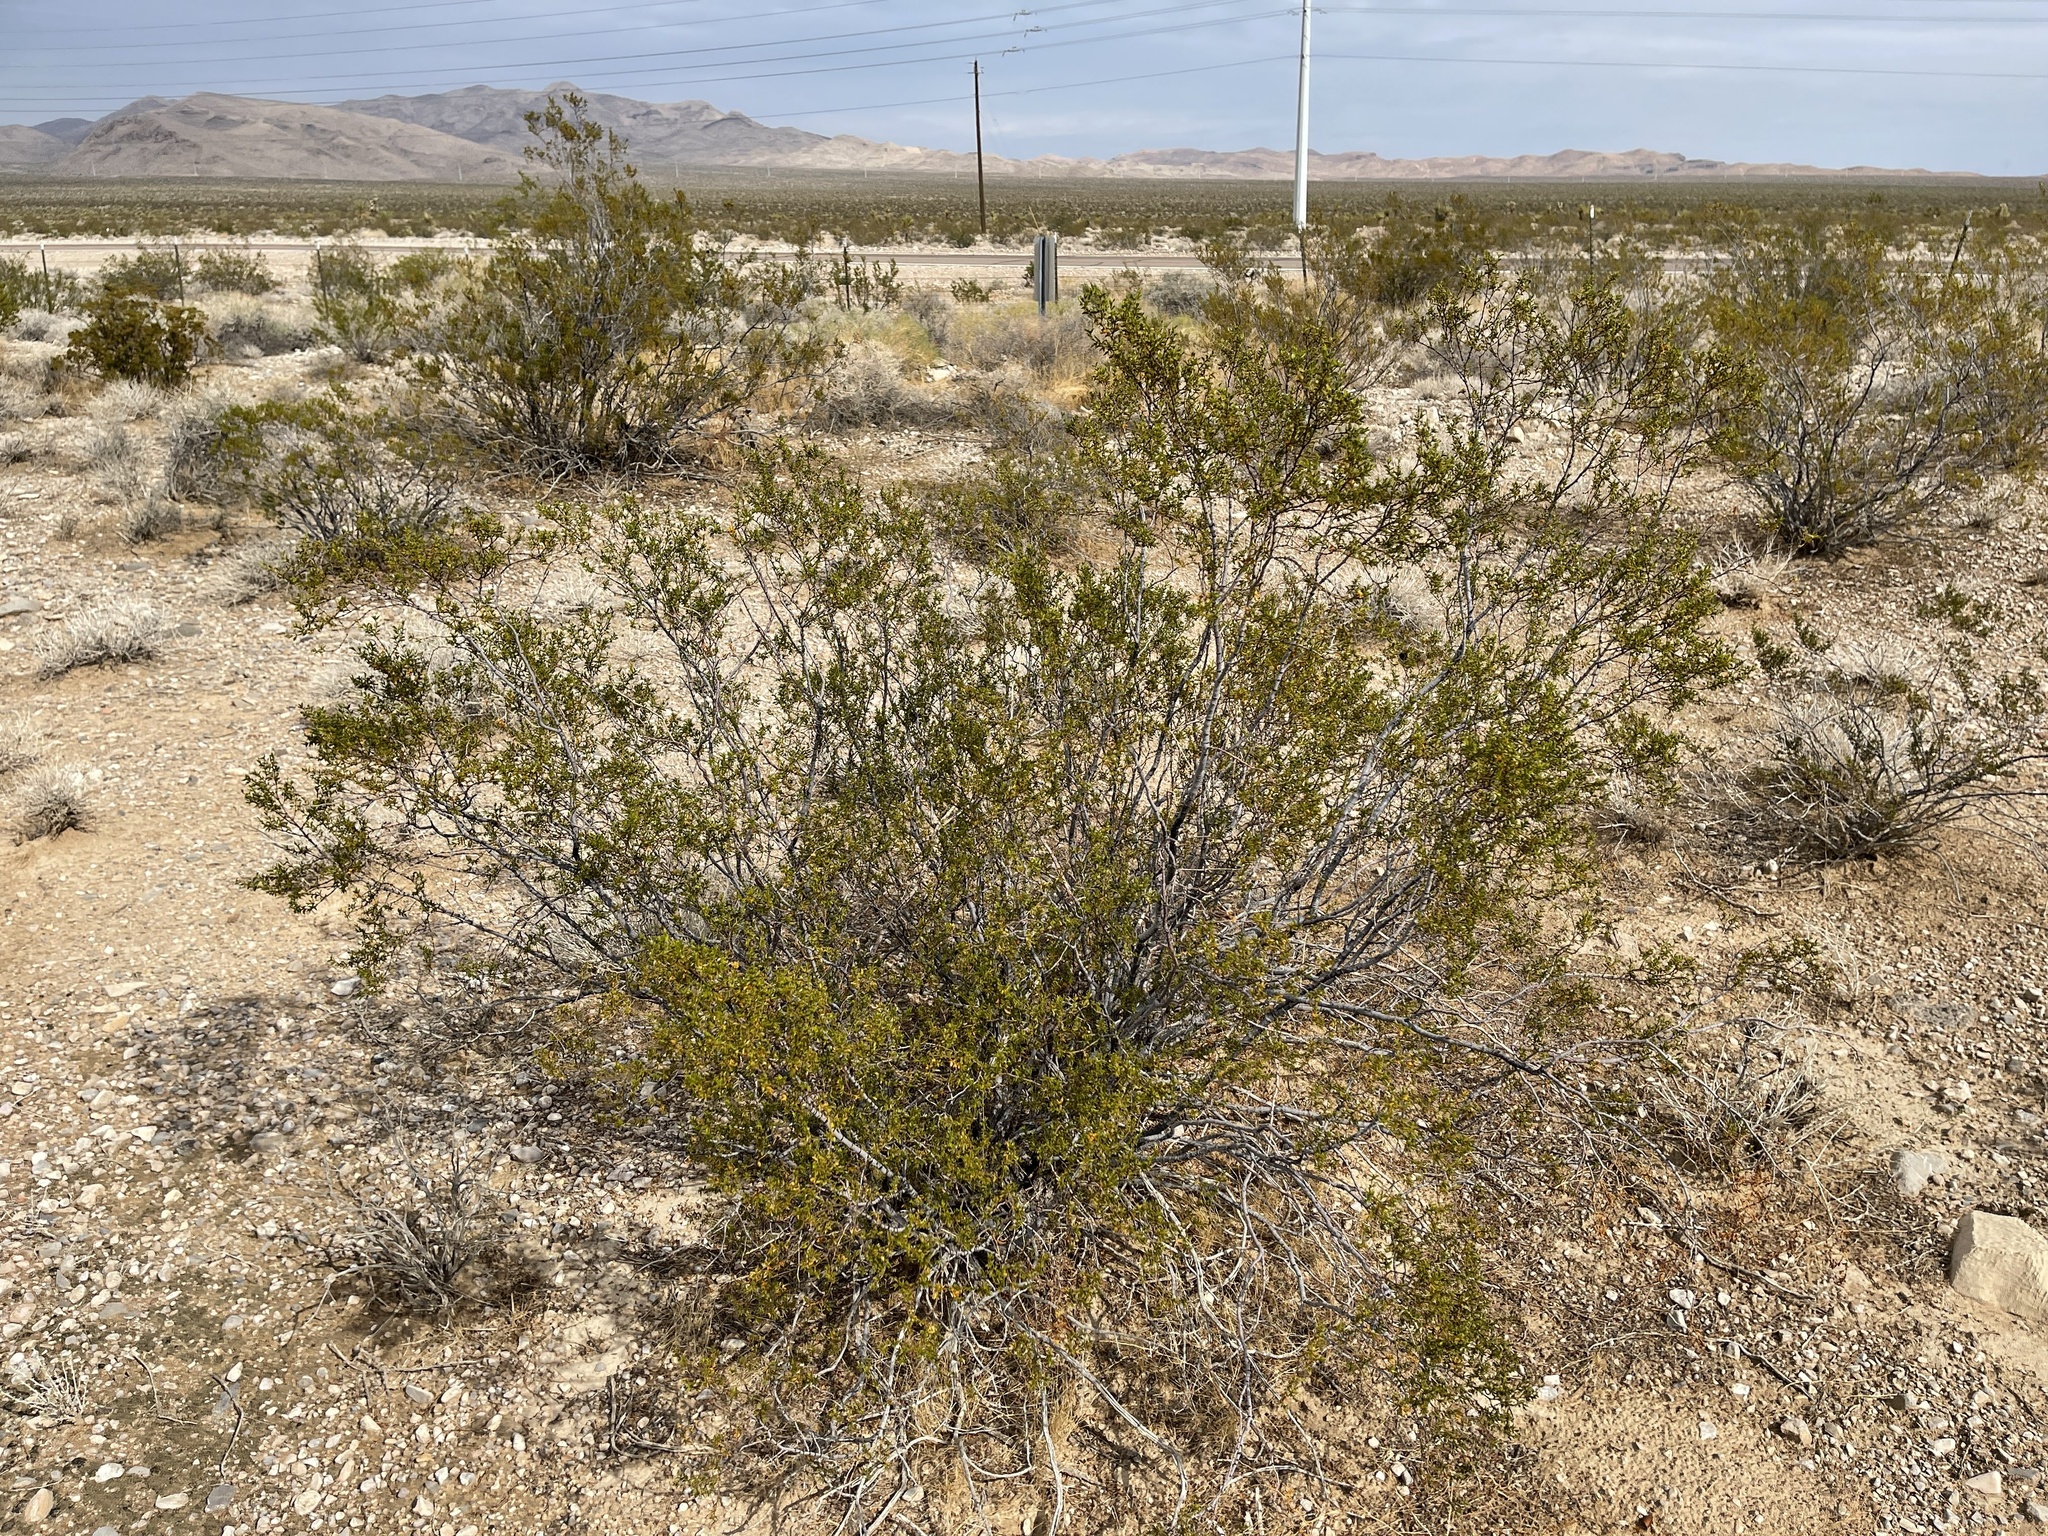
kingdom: Plantae
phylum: Tracheophyta
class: Magnoliopsida
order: Zygophyllales
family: Zygophyllaceae
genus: Larrea
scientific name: Larrea tridentata
